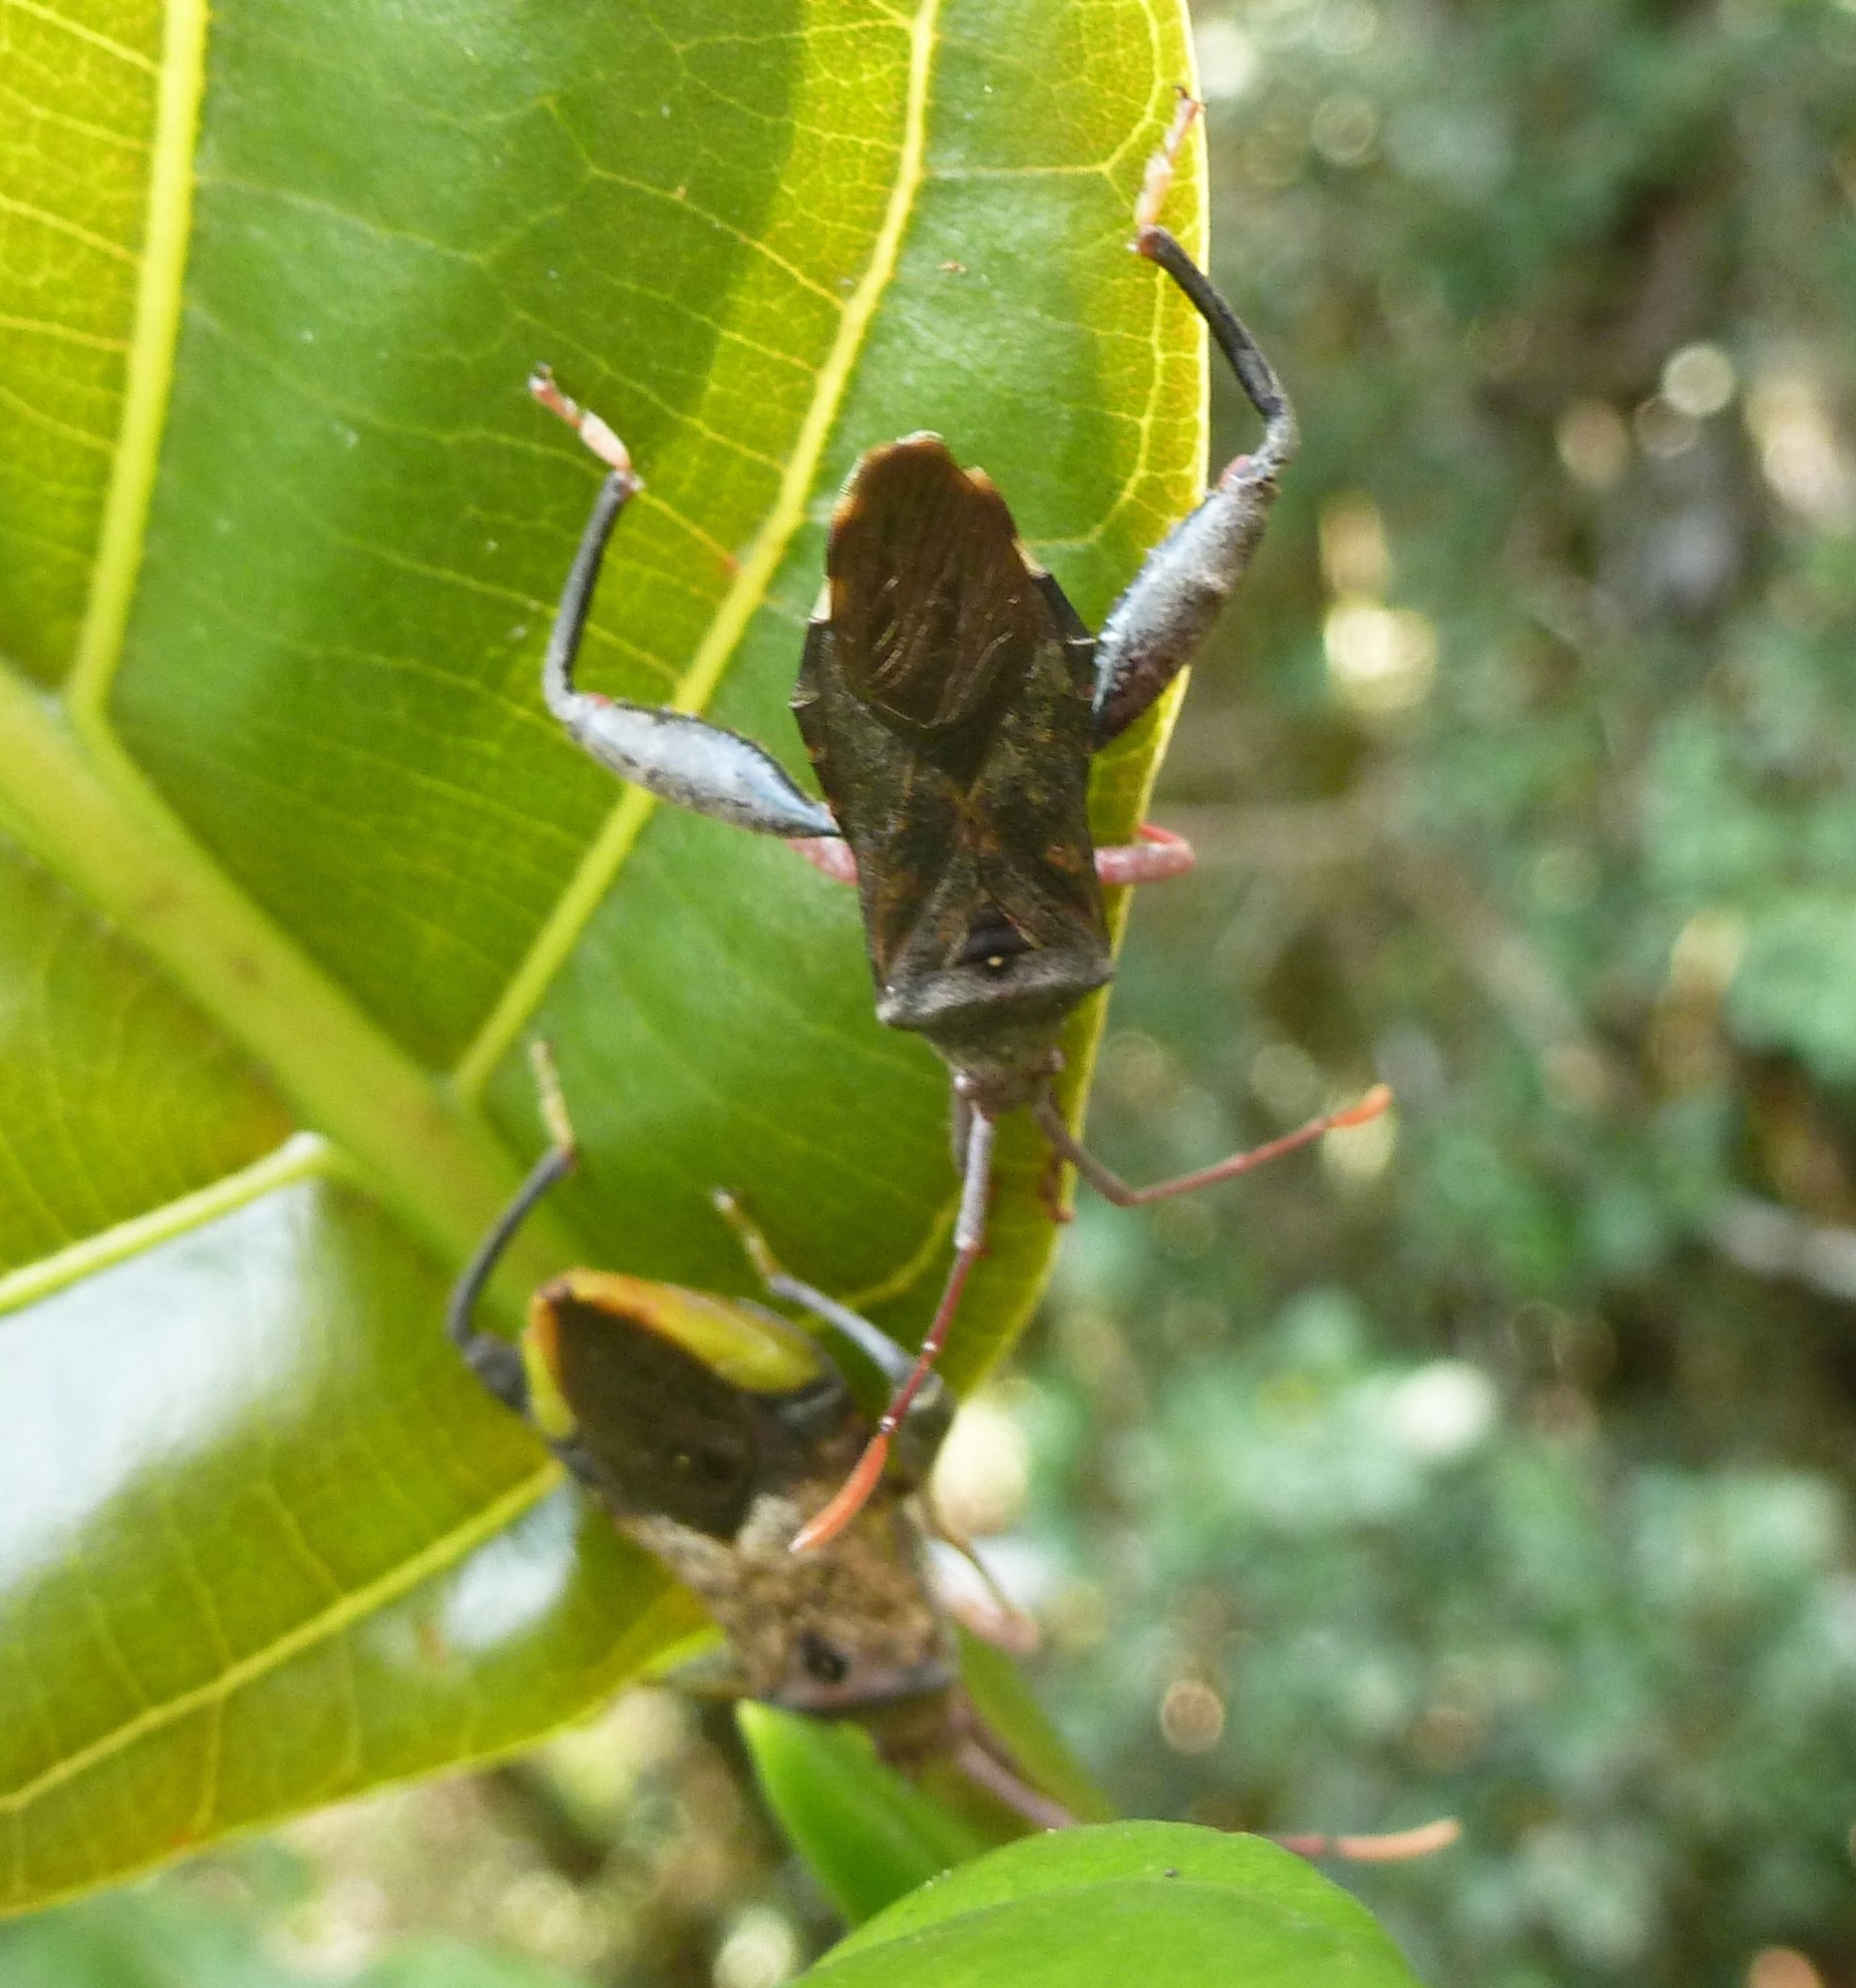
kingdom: Animalia
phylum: Arthropoda
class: Insecta
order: Hemiptera
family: Coreidae
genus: Antanambecoris
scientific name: Antanambecoris pronotalis
